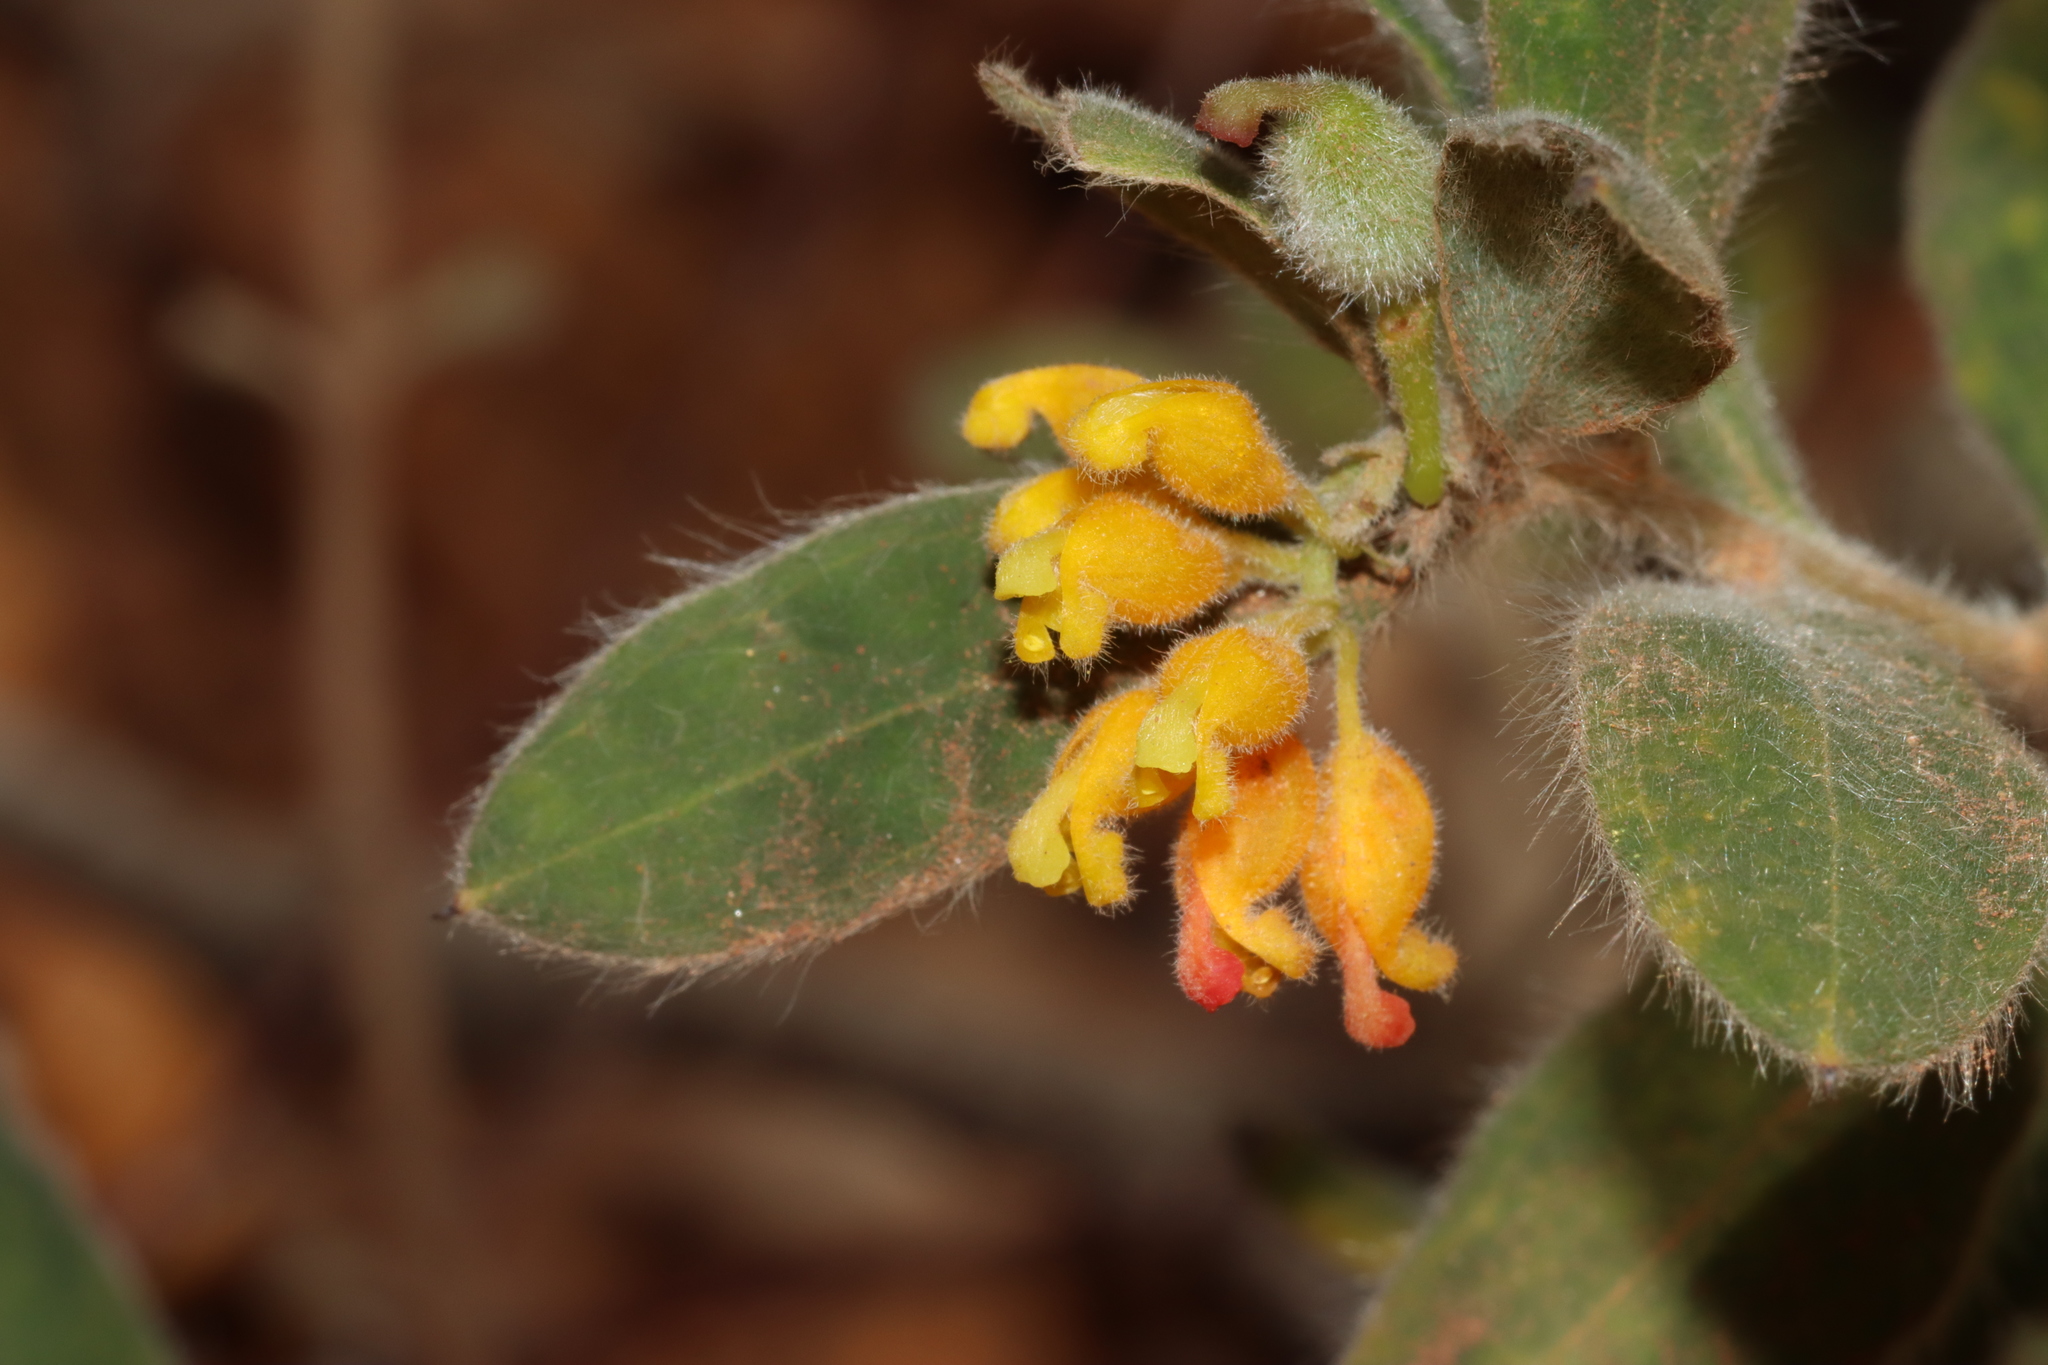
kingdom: Plantae
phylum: Tracheophyta
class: Magnoliopsida
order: Proteales
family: Proteaceae
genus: Grevillea
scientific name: Grevillea centristigma
